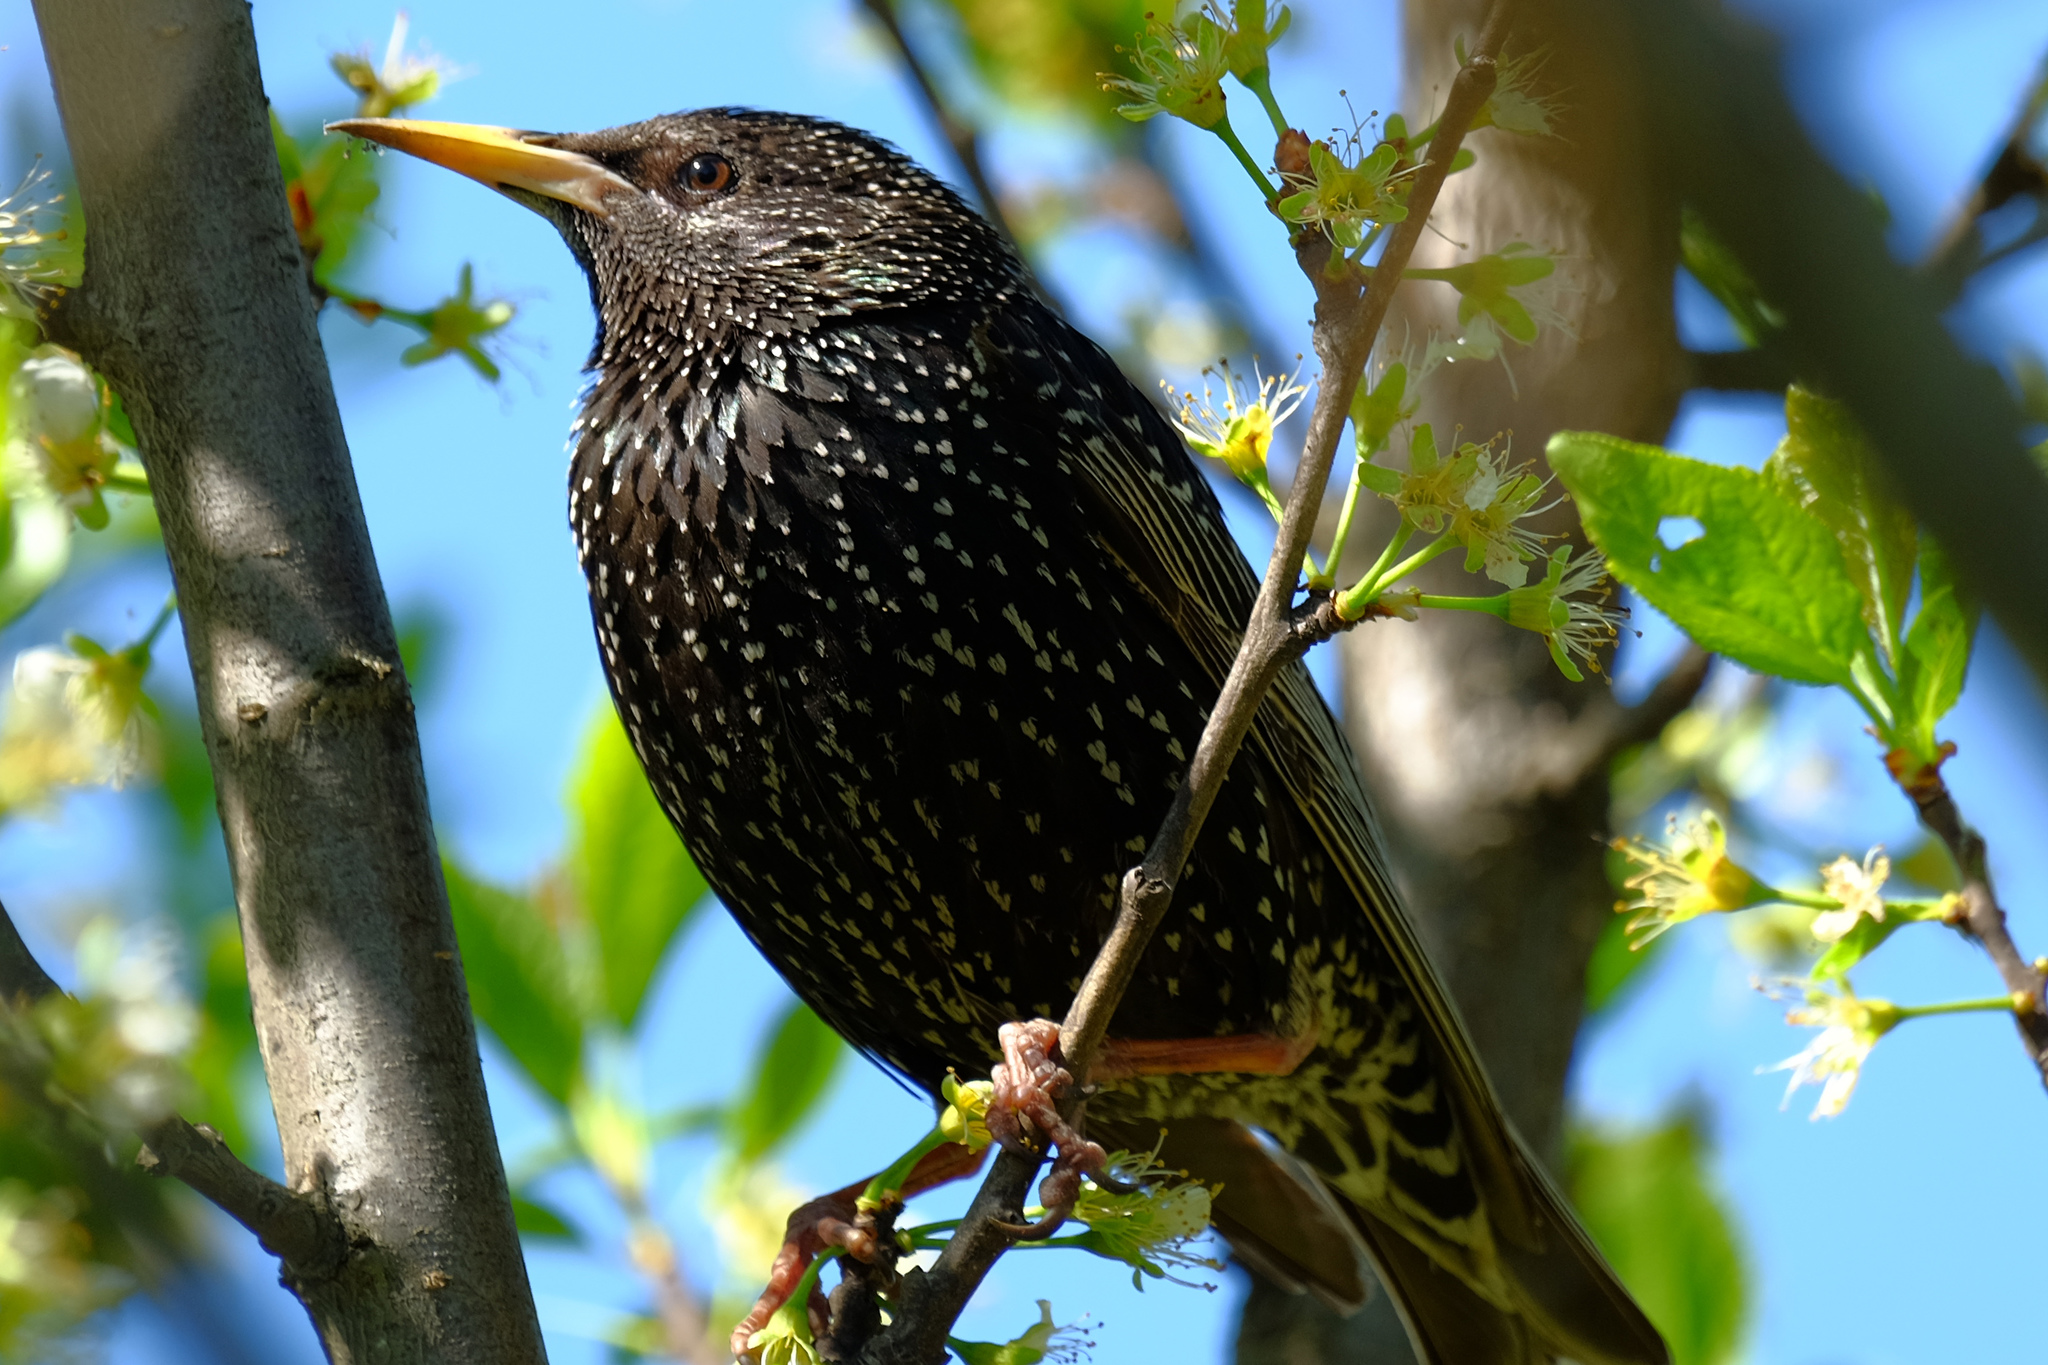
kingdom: Animalia
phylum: Chordata
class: Aves
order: Passeriformes
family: Sturnidae
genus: Sturnus
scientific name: Sturnus vulgaris
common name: Common starling
